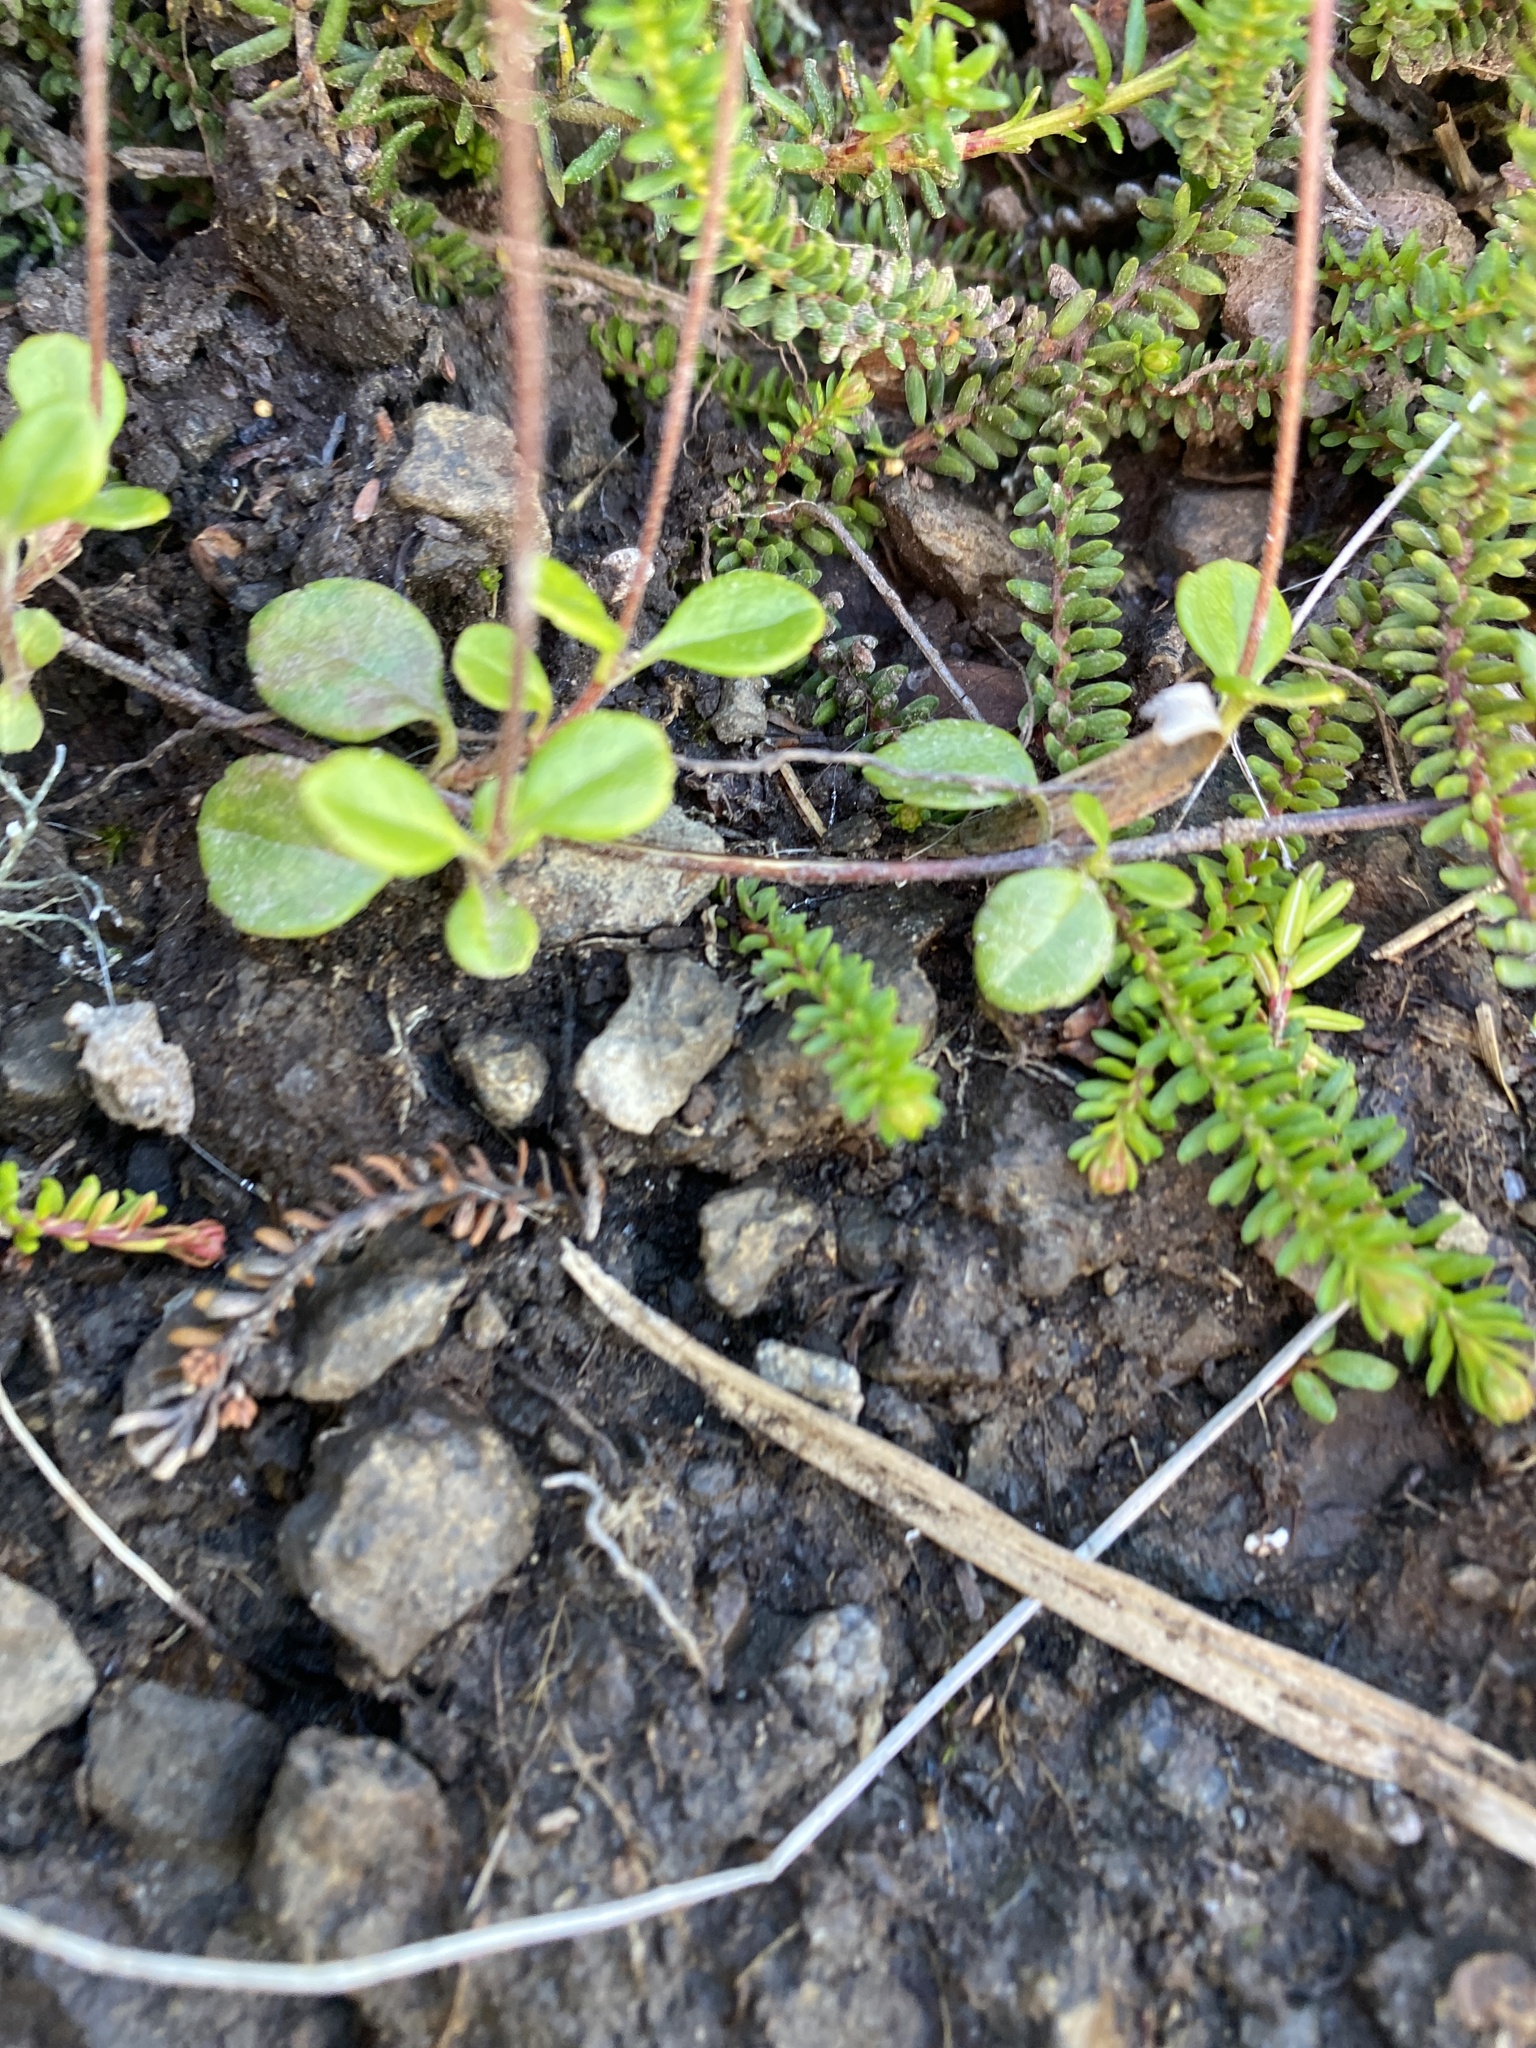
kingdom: Plantae
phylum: Tracheophyta
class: Magnoliopsida
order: Dipsacales
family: Caprifoliaceae
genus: Linnaea
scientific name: Linnaea borealis
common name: Twinflower
